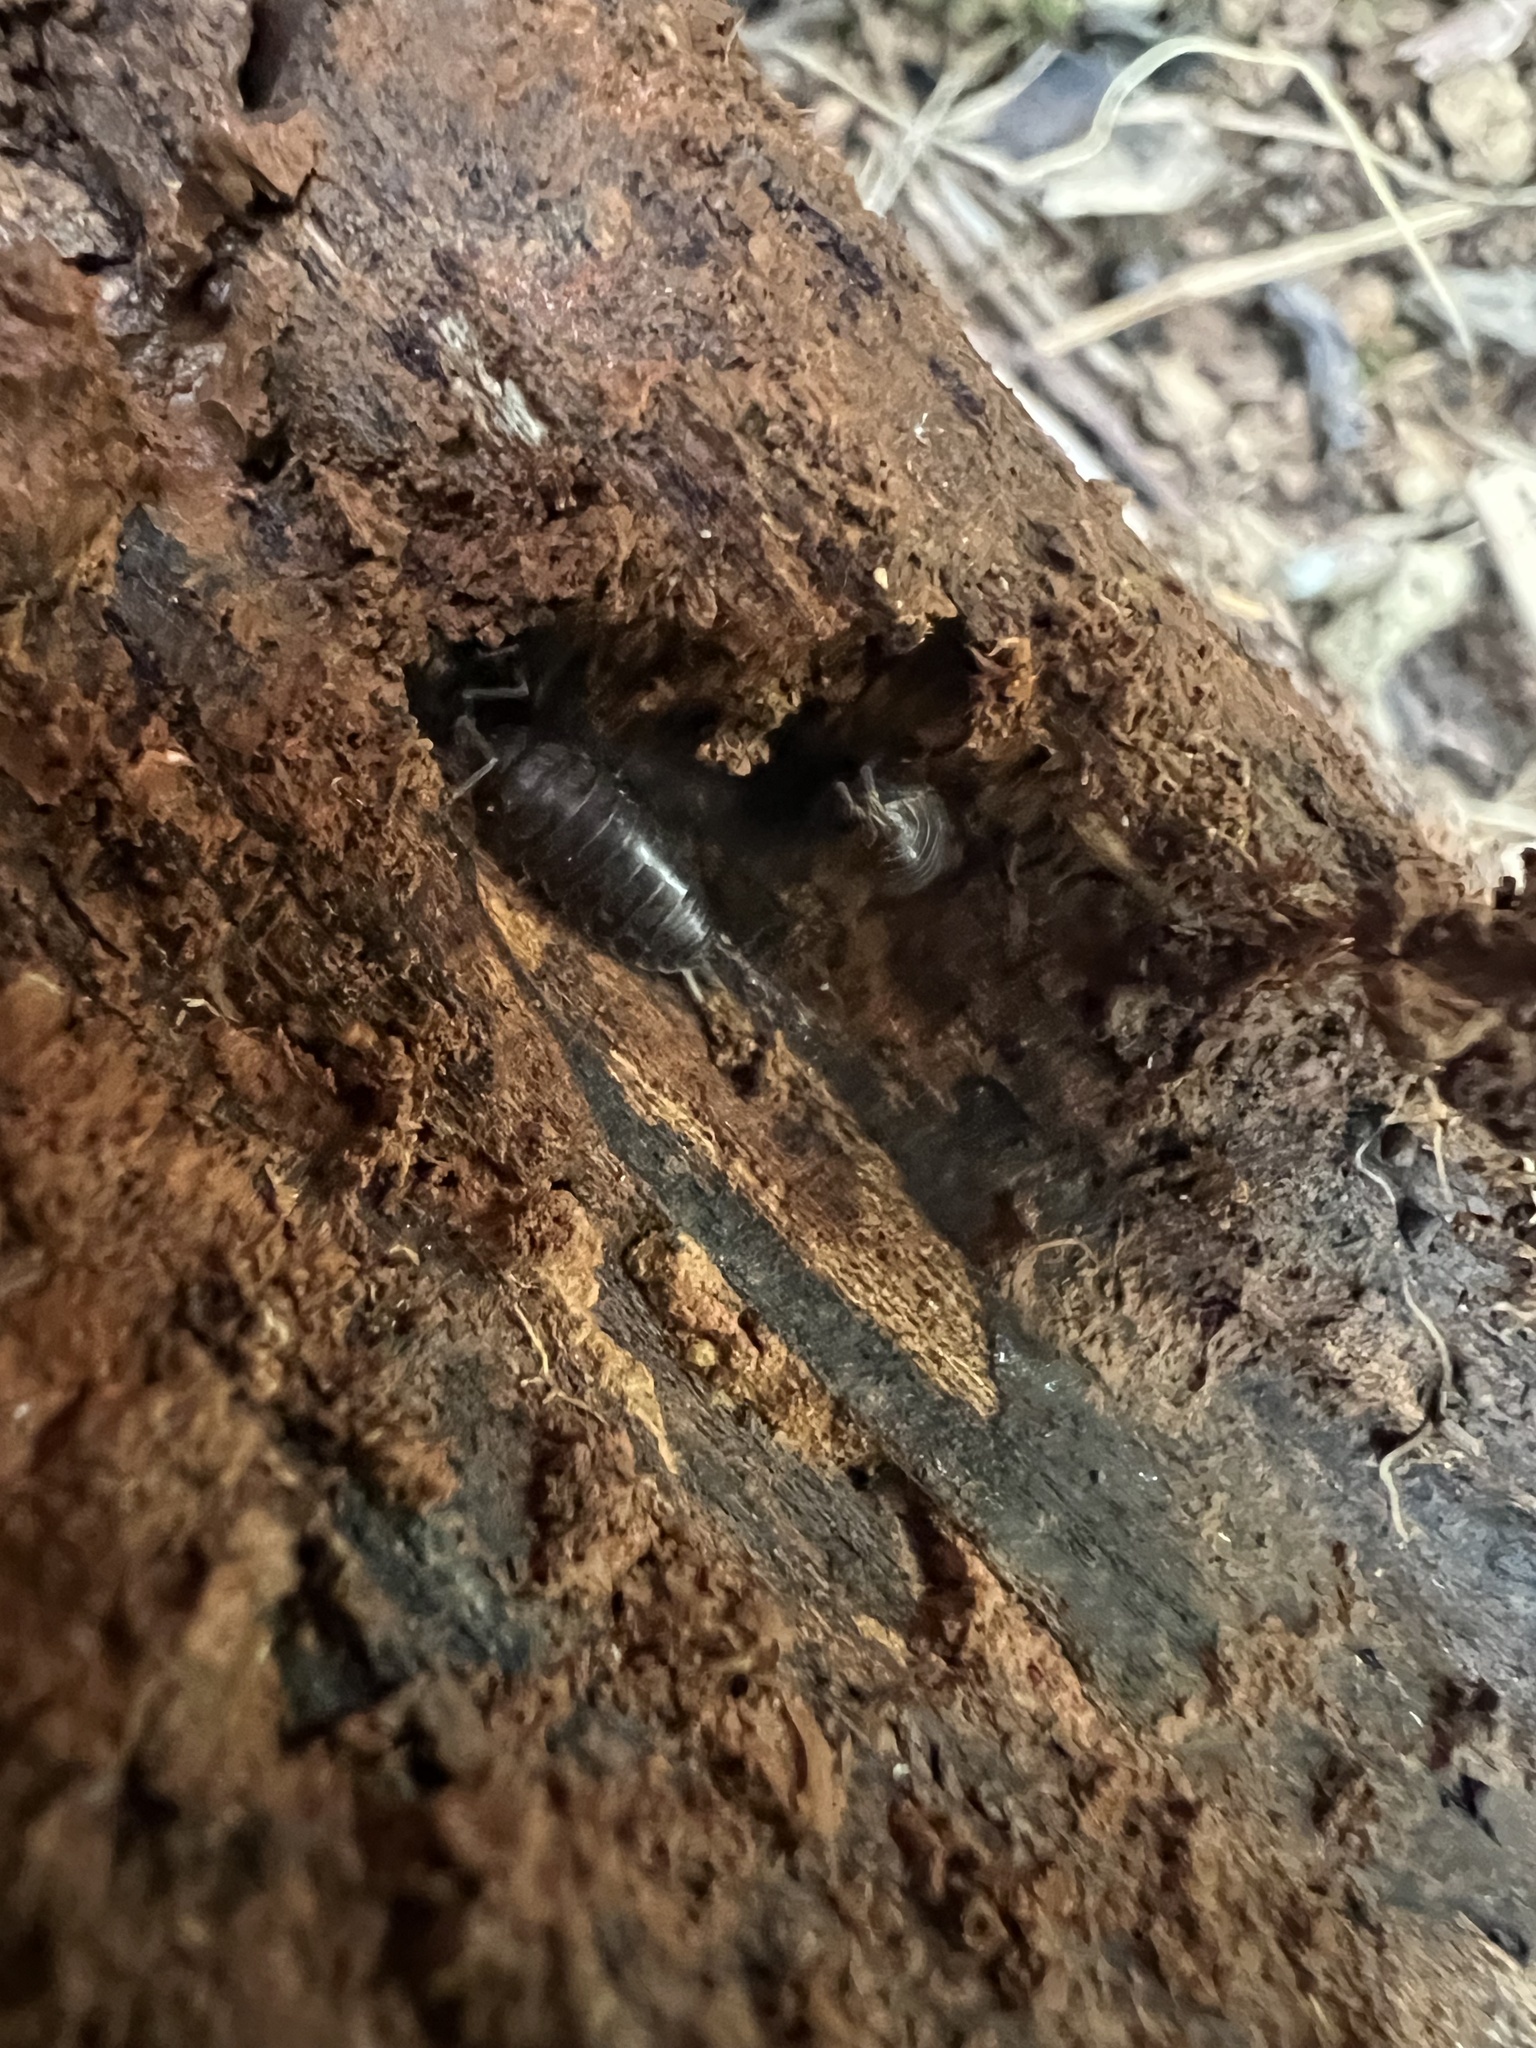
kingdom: Animalia
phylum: Arthropoda
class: Malacostraca
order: Isopoda
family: Cylisticidae
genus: Cylisticus
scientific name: Cylisticus convexus
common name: Curly woodlouse
